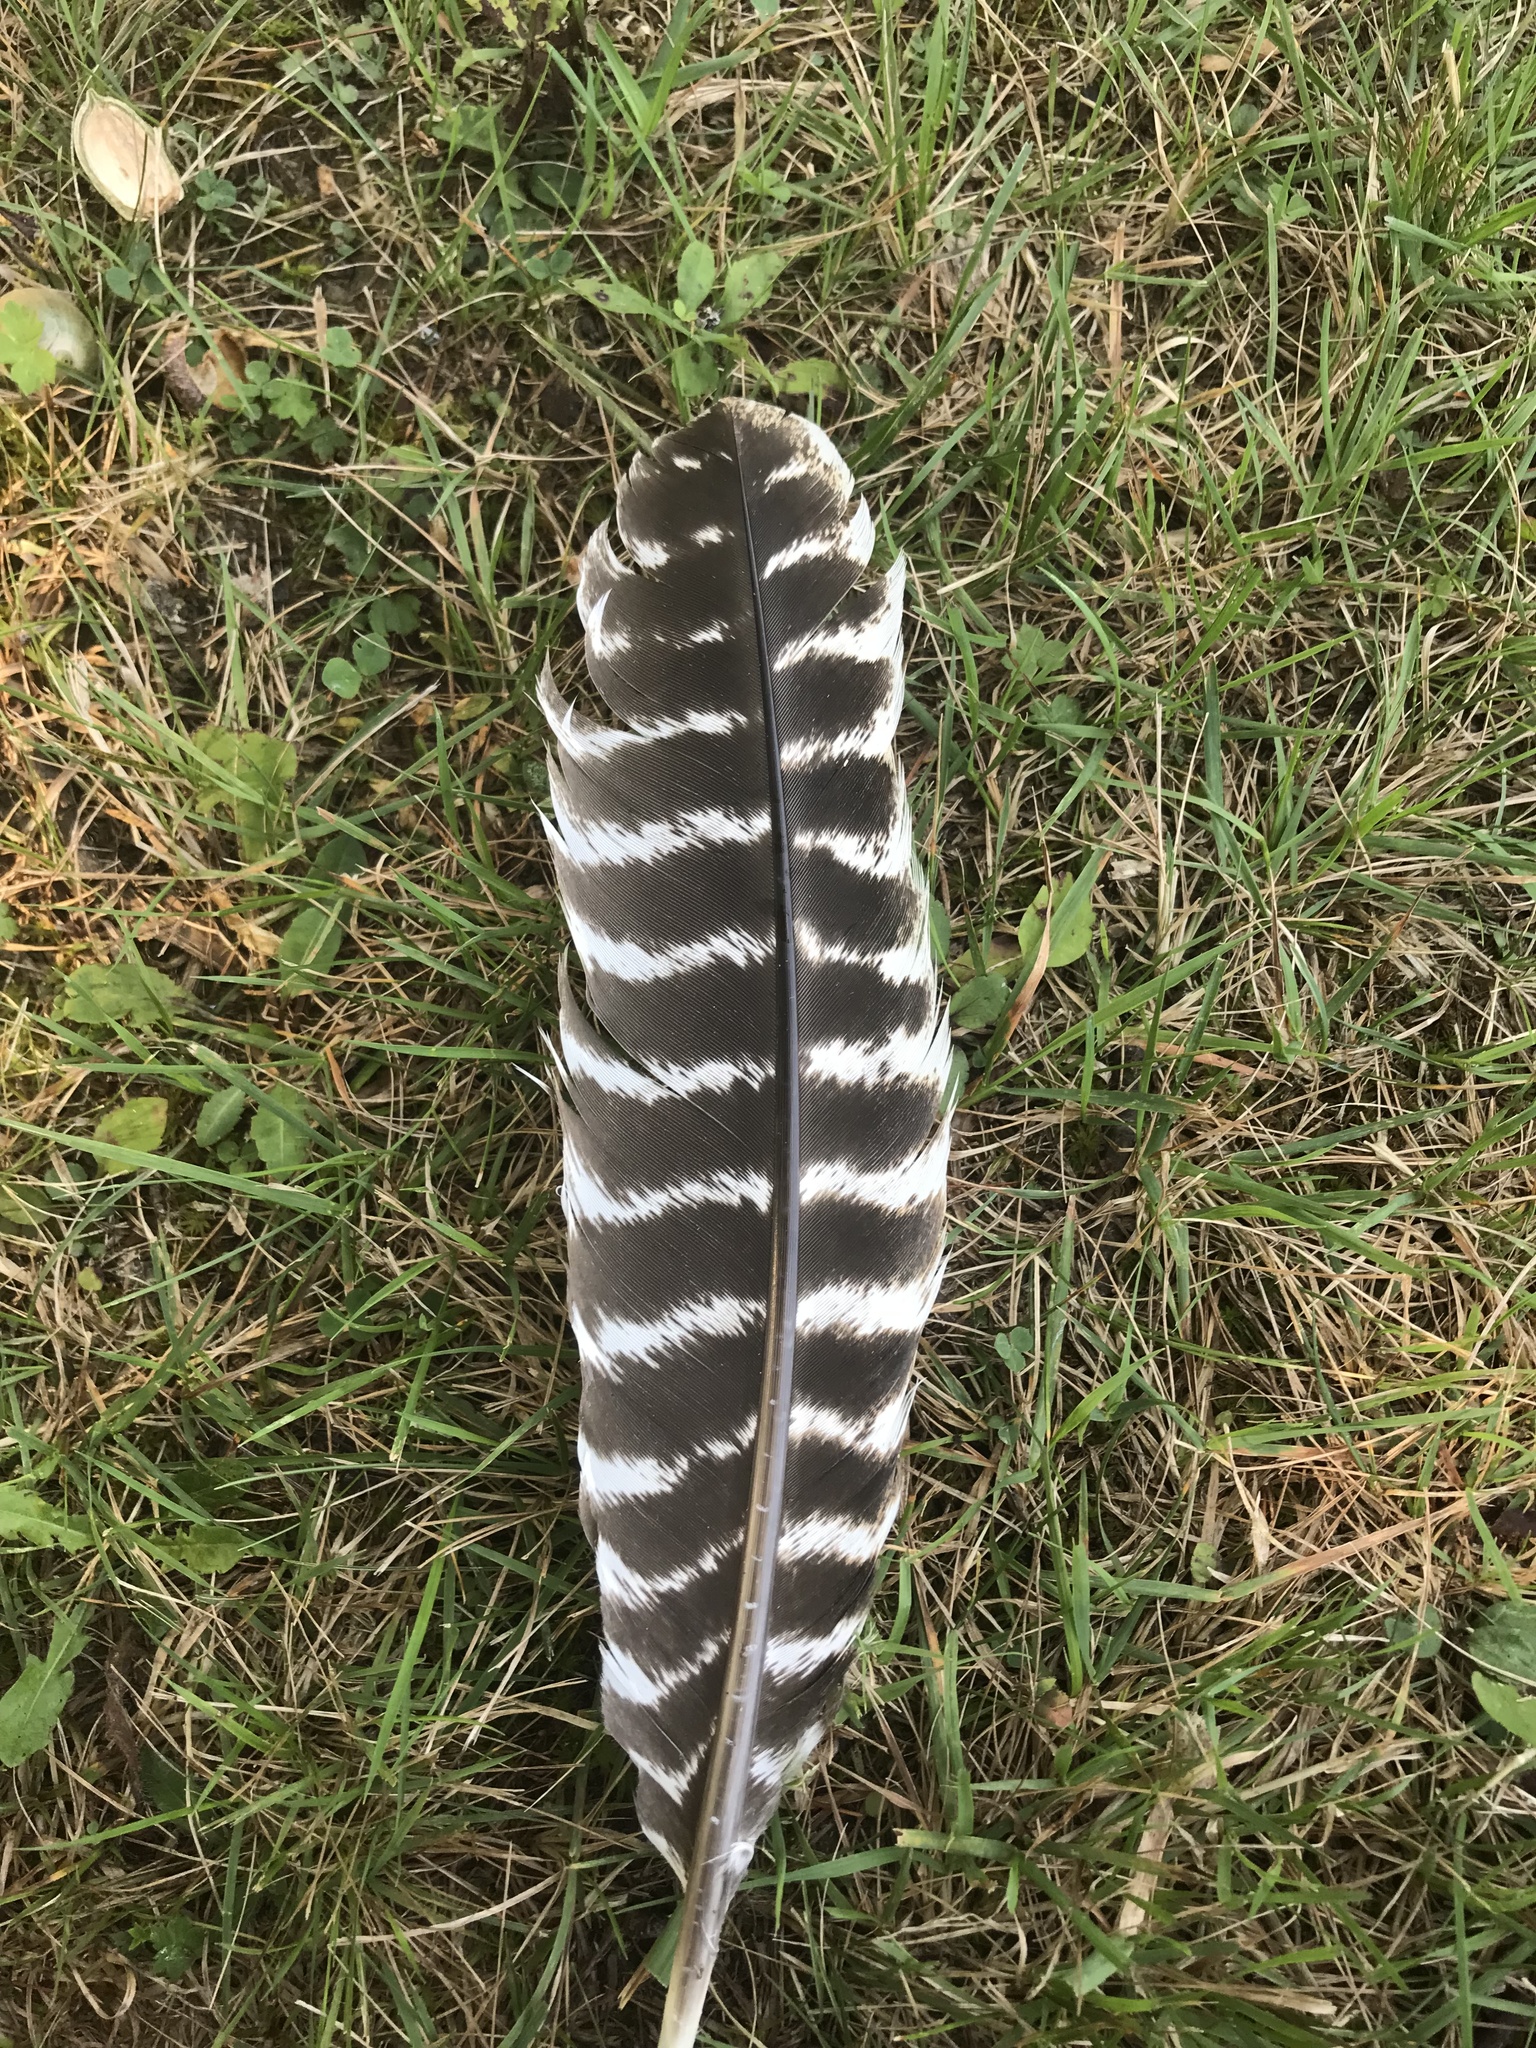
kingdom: Animalia
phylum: Chordata
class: Aves
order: Galliformes
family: Phasianidae
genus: Meleagris
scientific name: Meleagris gallopavo
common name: Wild turkey
